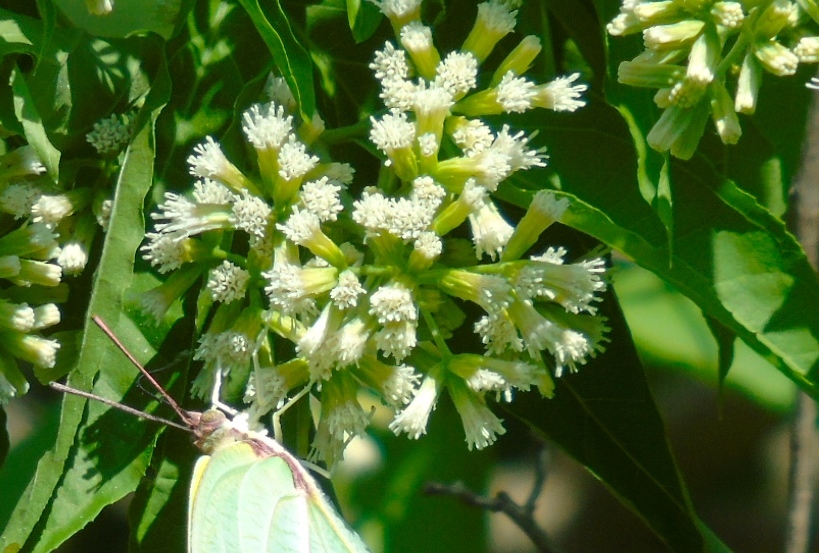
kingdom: Plantae
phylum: Tracheophyta
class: Magnoliopsida
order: Asterales
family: Asteraceae
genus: Koanophyllon
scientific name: Koanophyllon albicaule
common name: Old women's walking stick
